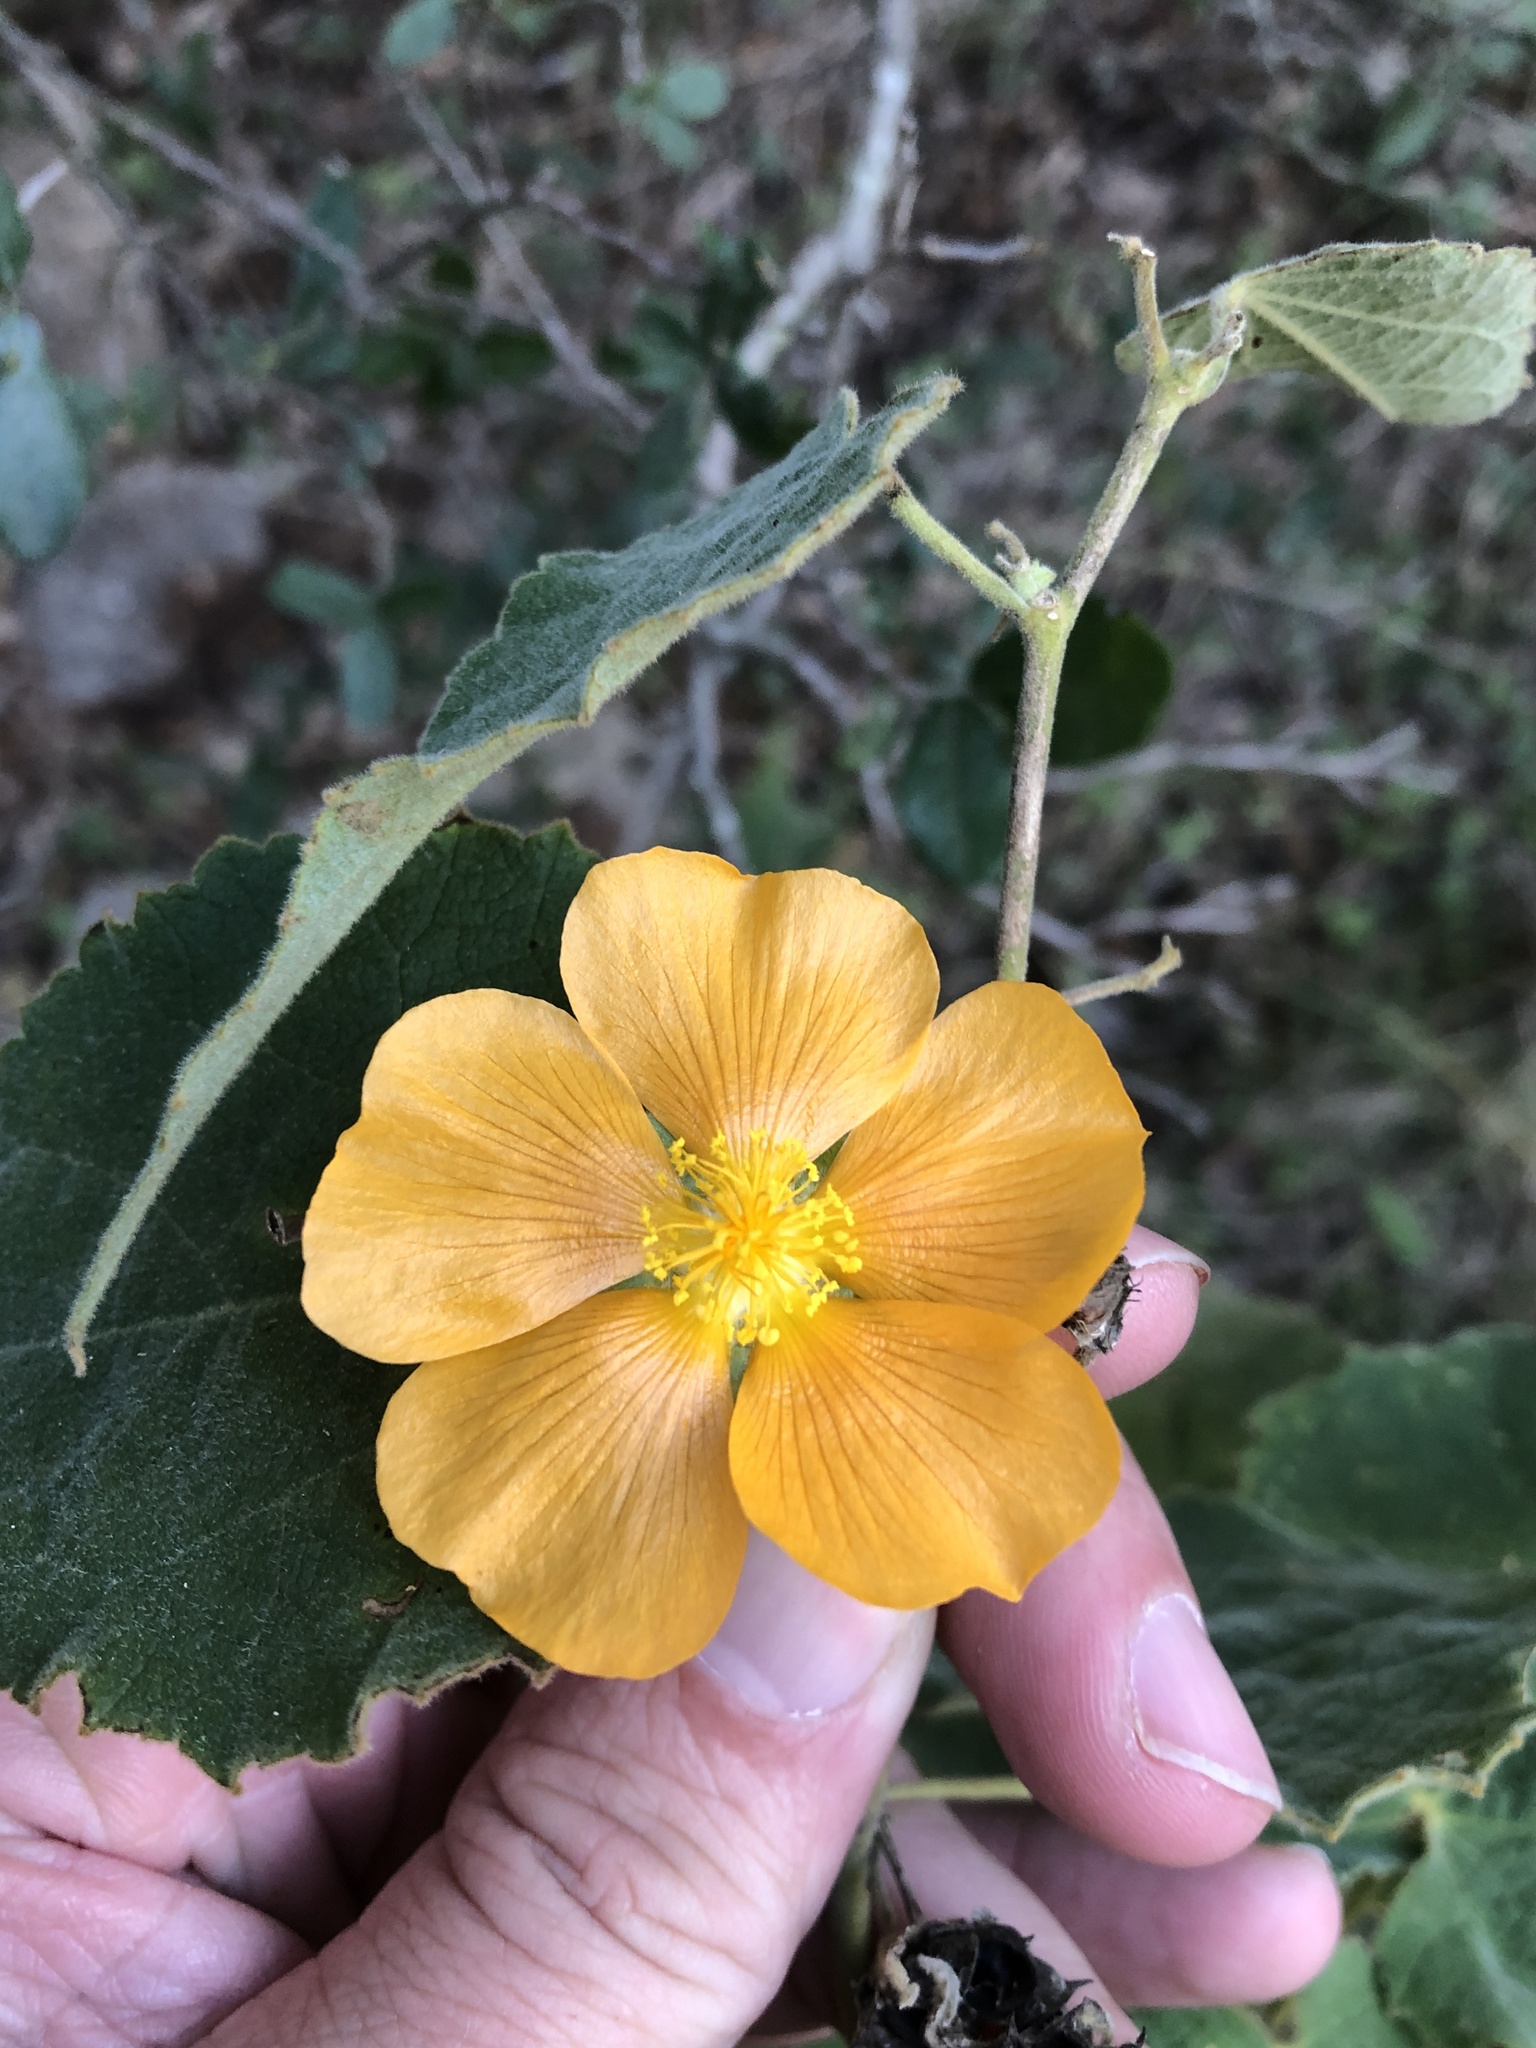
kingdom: Plantae
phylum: Tracheophyta
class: Magnoliopsida
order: Malvales
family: Malvaceae
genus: Allowissadula
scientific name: Allowissadula holosericea
